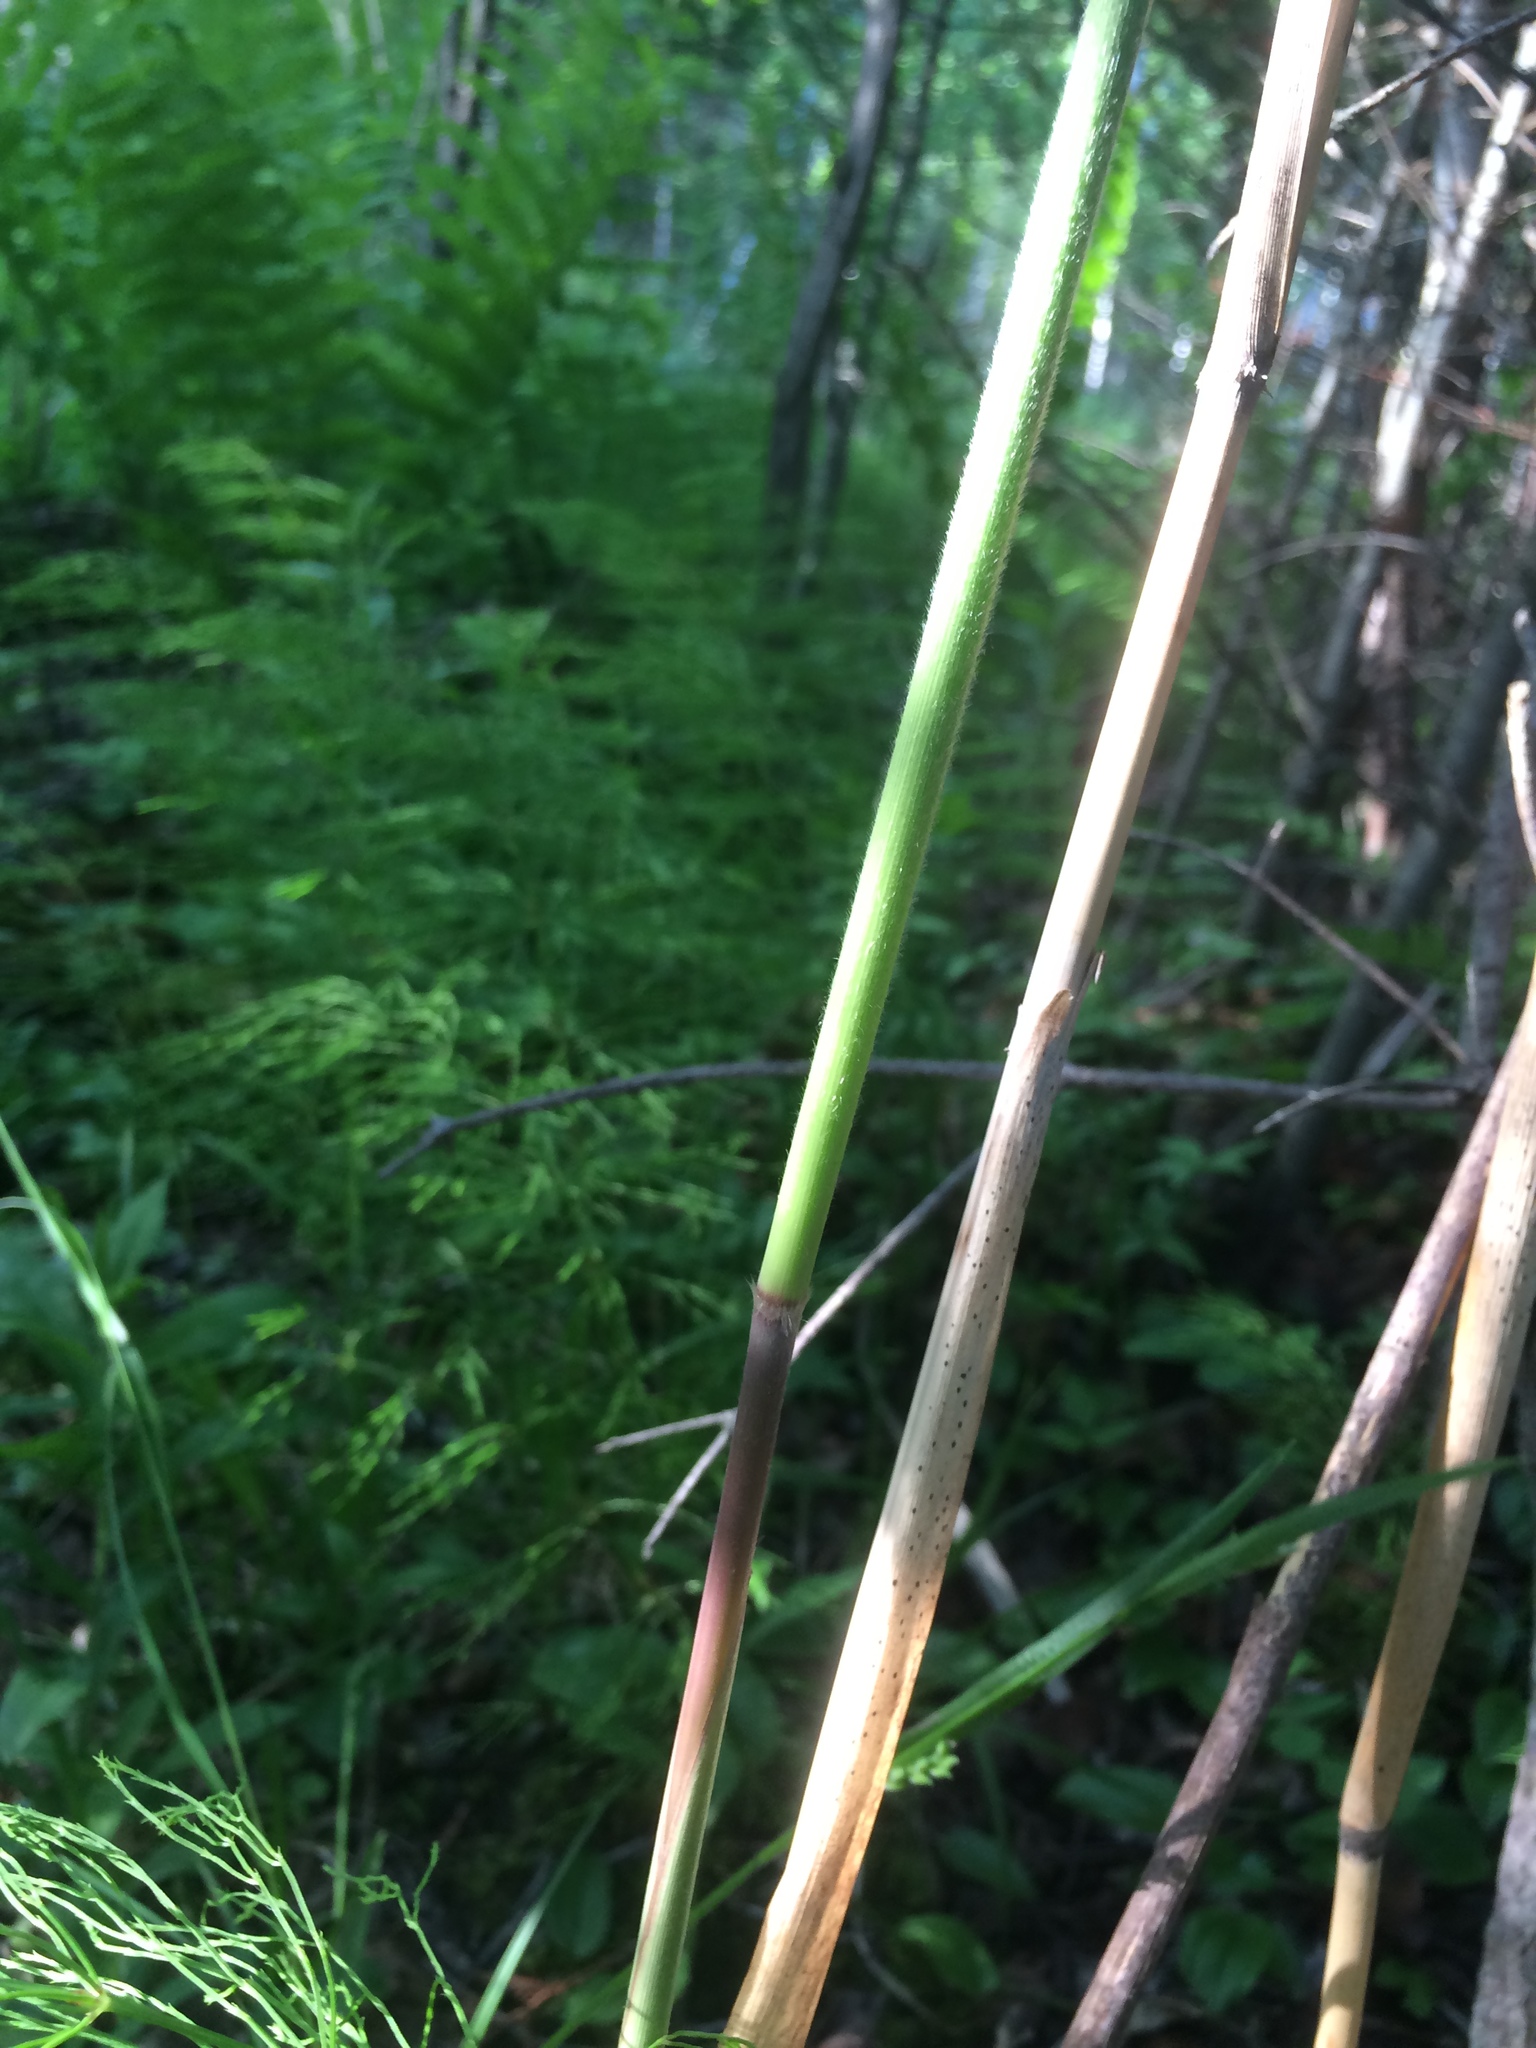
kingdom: Plantae
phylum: Tracheophyta
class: Liliopsida
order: Poales
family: Poaceae
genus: Phragmites
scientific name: Phragmites australis
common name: Common reed
